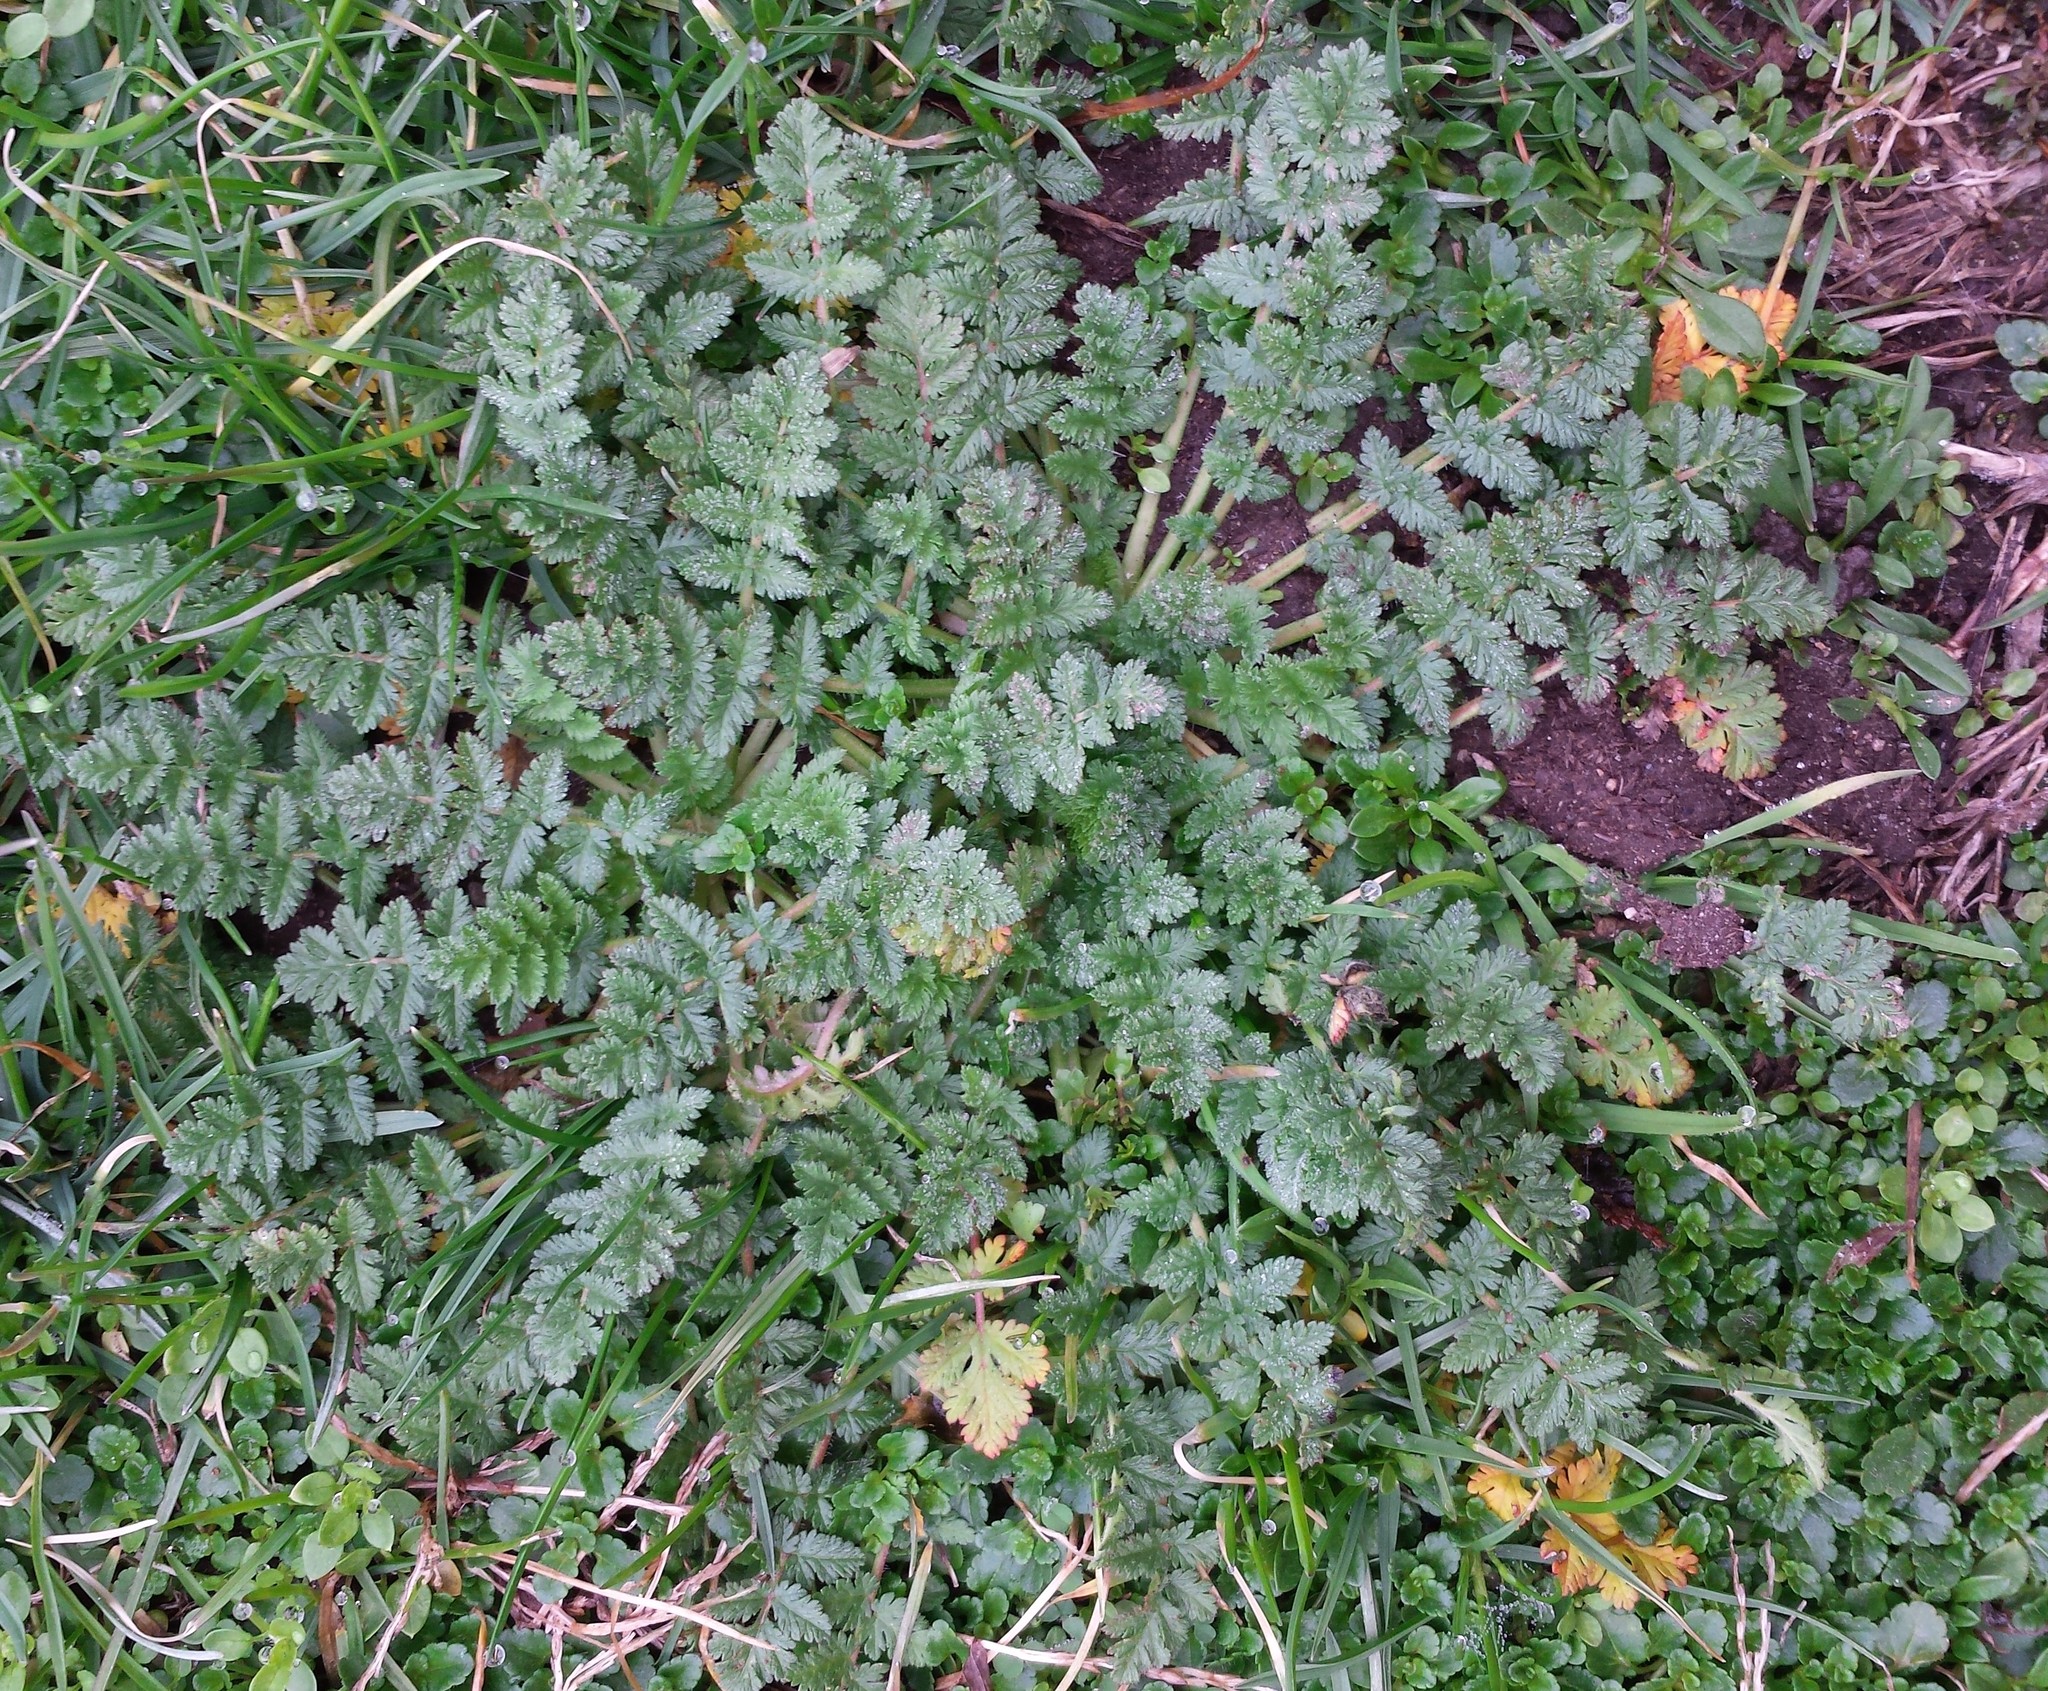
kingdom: Plantae
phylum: Tracheophyta
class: Magnoliopsida
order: Geraniales
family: Geraniaceae
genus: Erodium
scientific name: Erodium cicutarium
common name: Common stork's-bill
